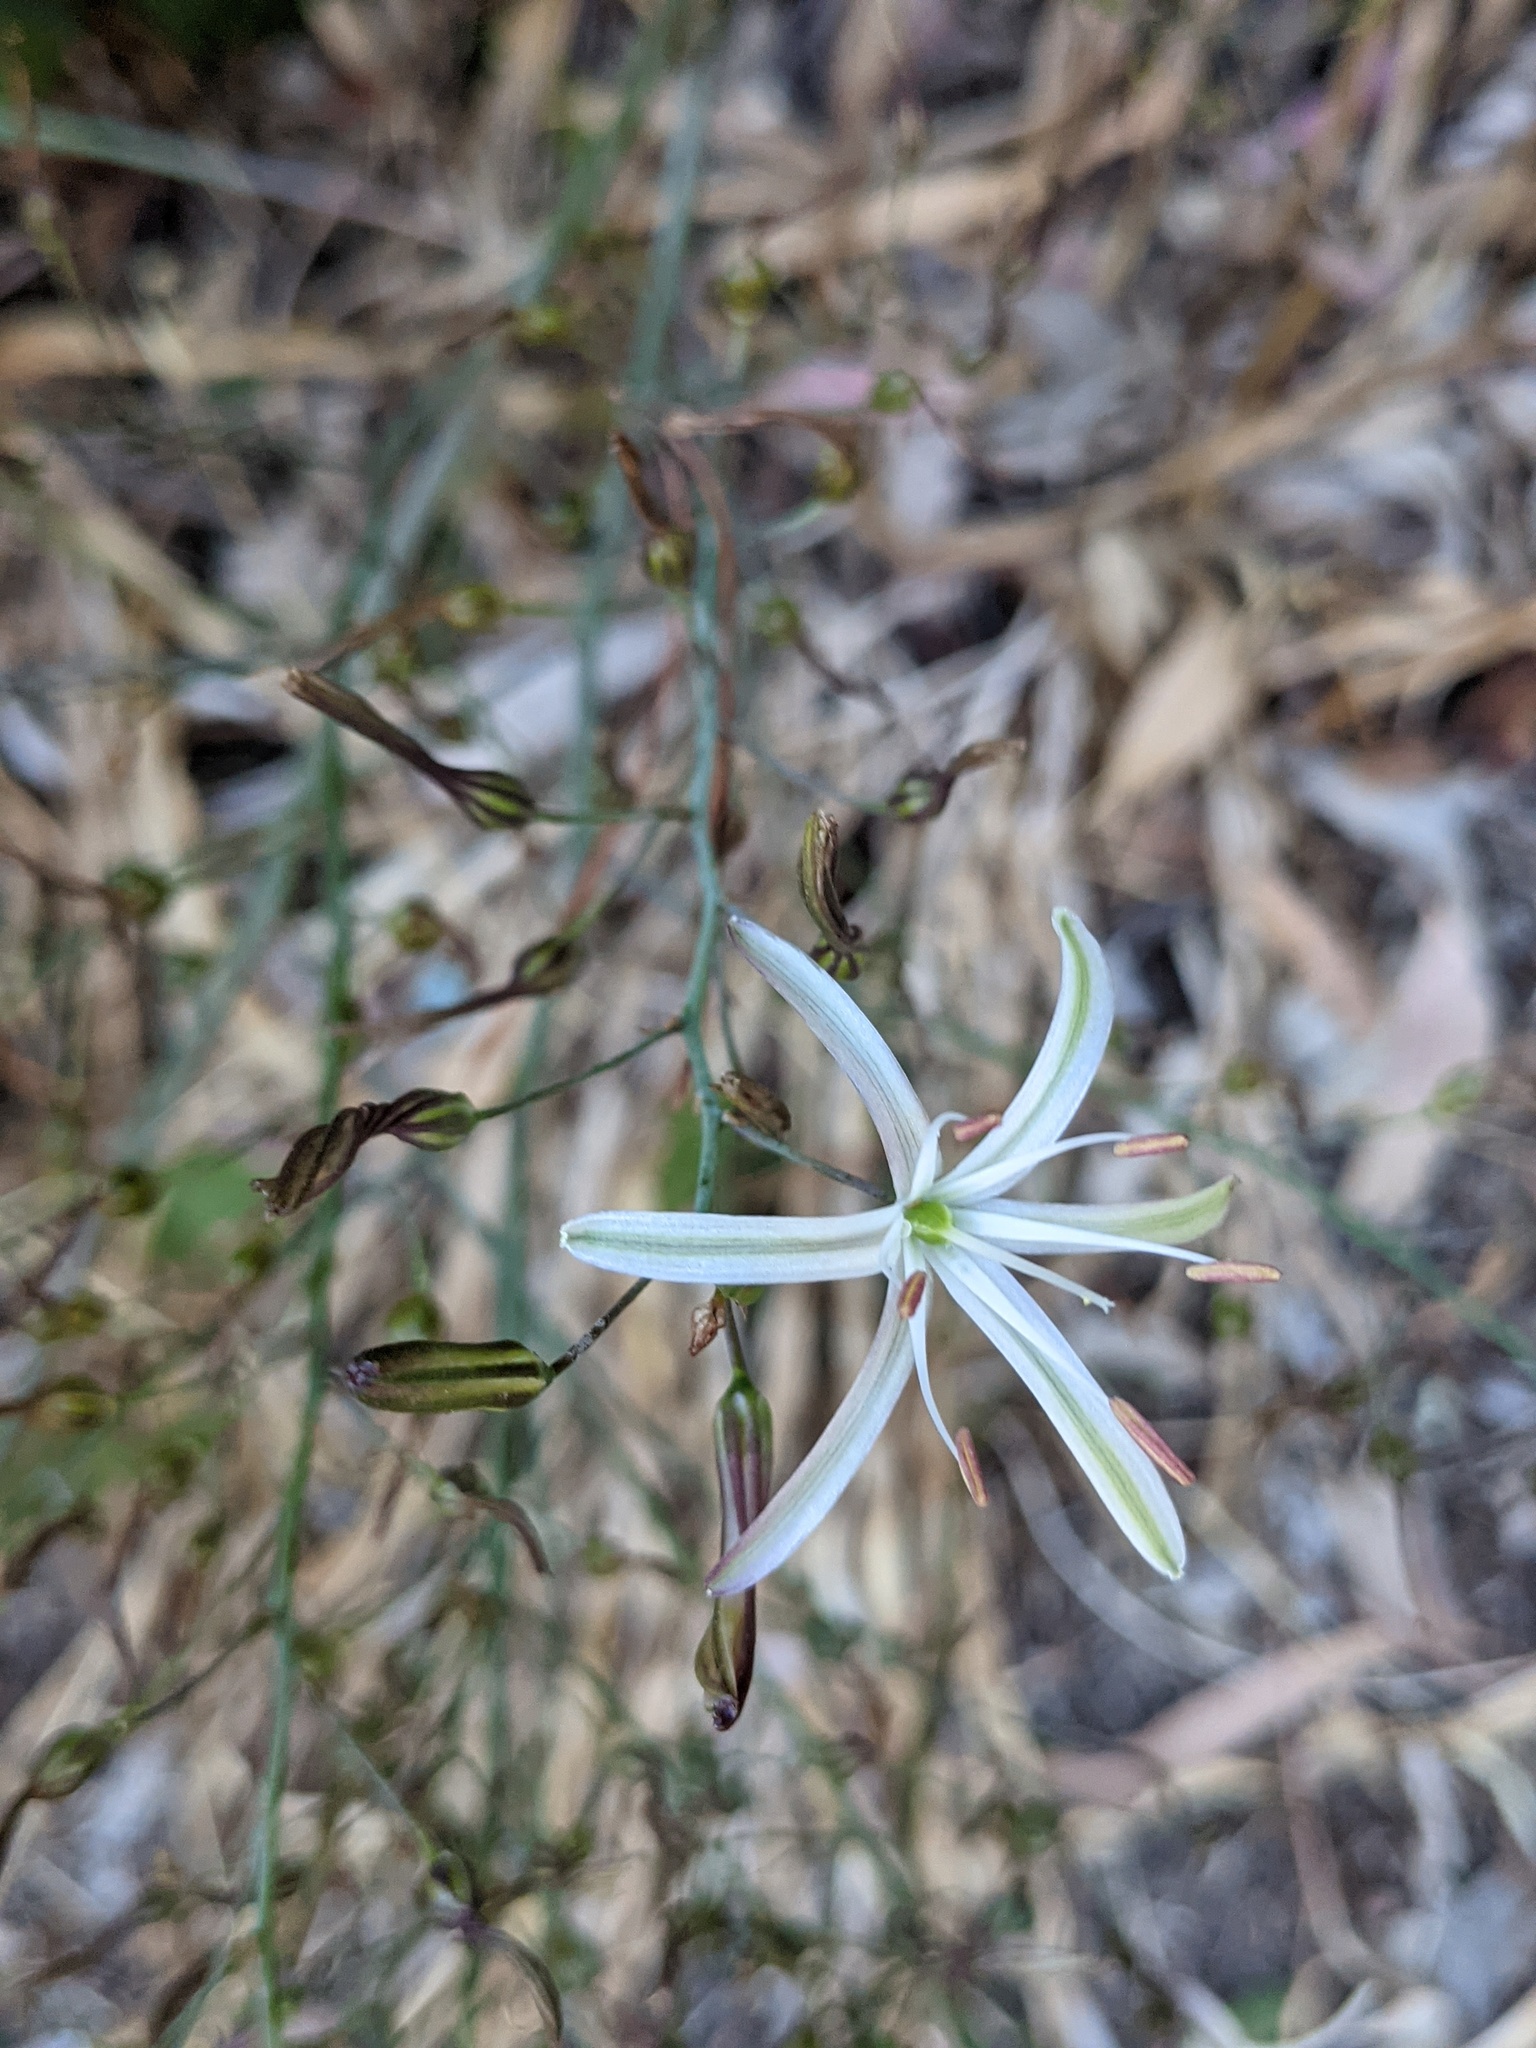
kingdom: Plantae
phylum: Tracheophyta
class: Liliopsida
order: Asparagales
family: Asparagaceae
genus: Chlorogalum
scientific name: Chlorogalum pomeridianum
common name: Amole
